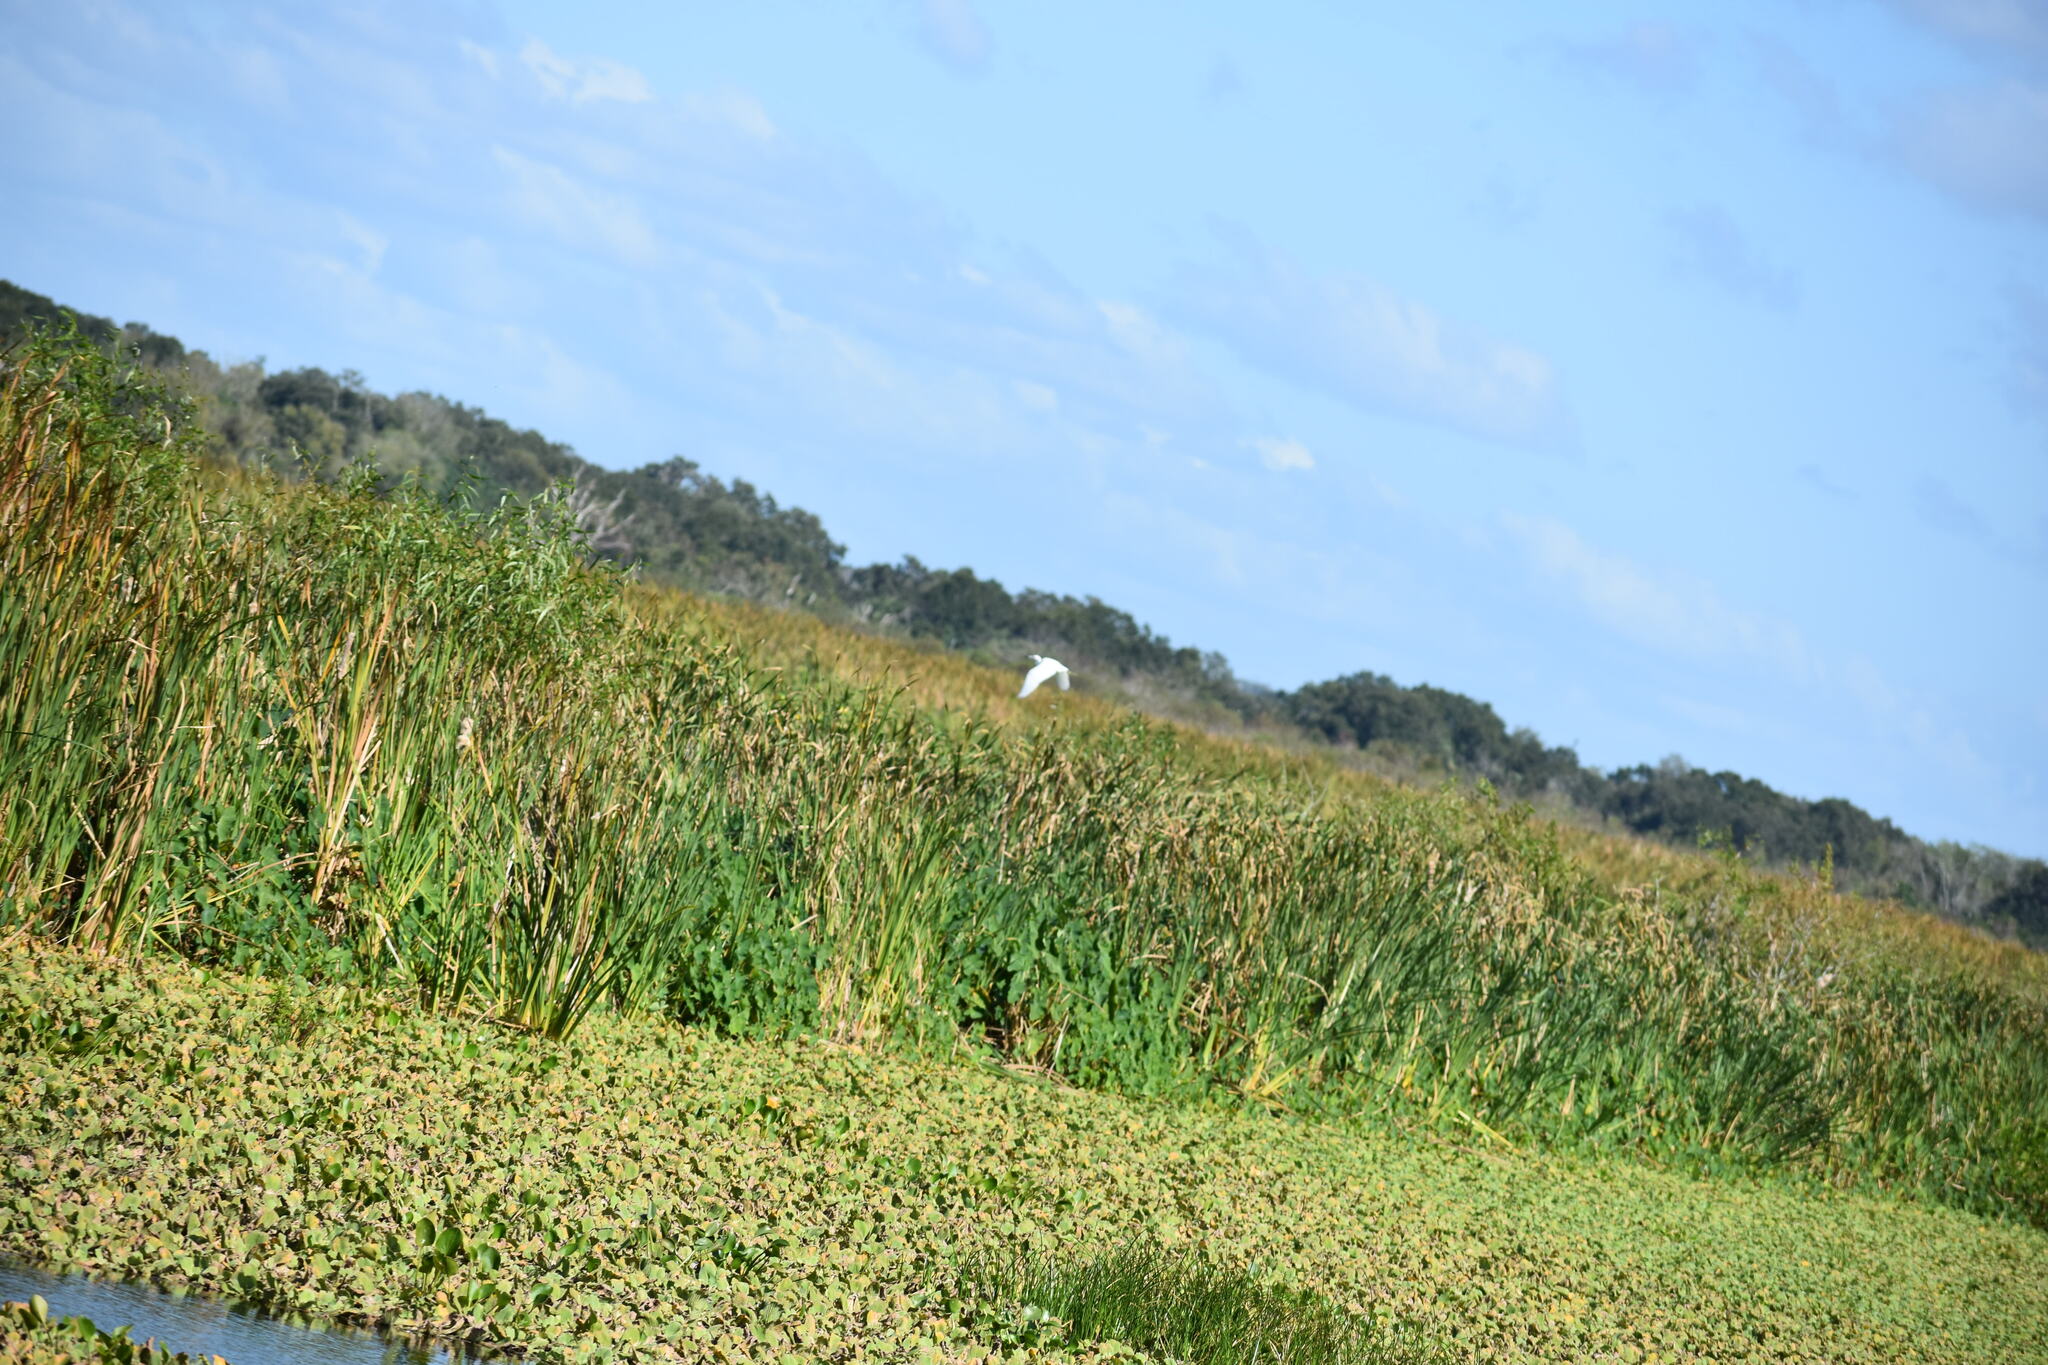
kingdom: Animalia
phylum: Chordata
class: Aves
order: Pelecaniformes
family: Ardeidae
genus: Egretta
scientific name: Egretta caerulea
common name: Little blue heron
